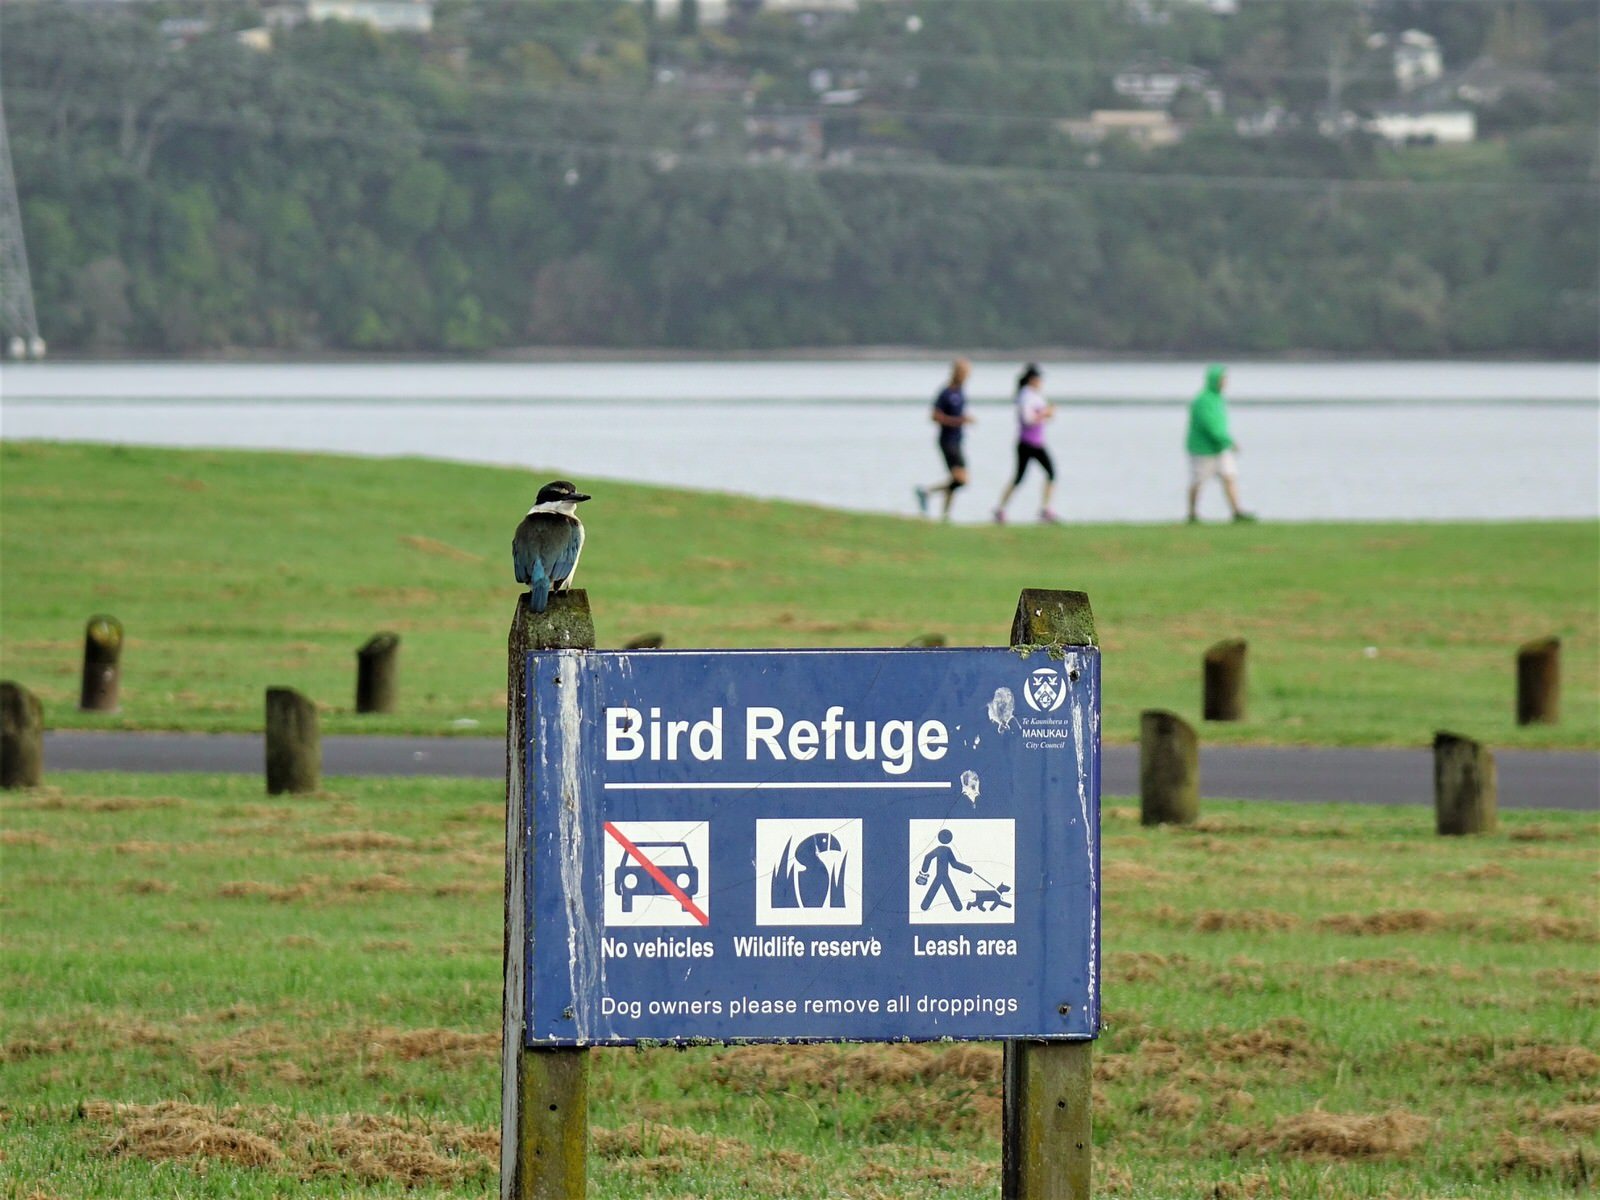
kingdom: Animalia
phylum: Chordata
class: Aves
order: Coraciiformes
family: Alcedinidae
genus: Todiramphus
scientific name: Todiramphus sanctus
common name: Sacred kingfisher
